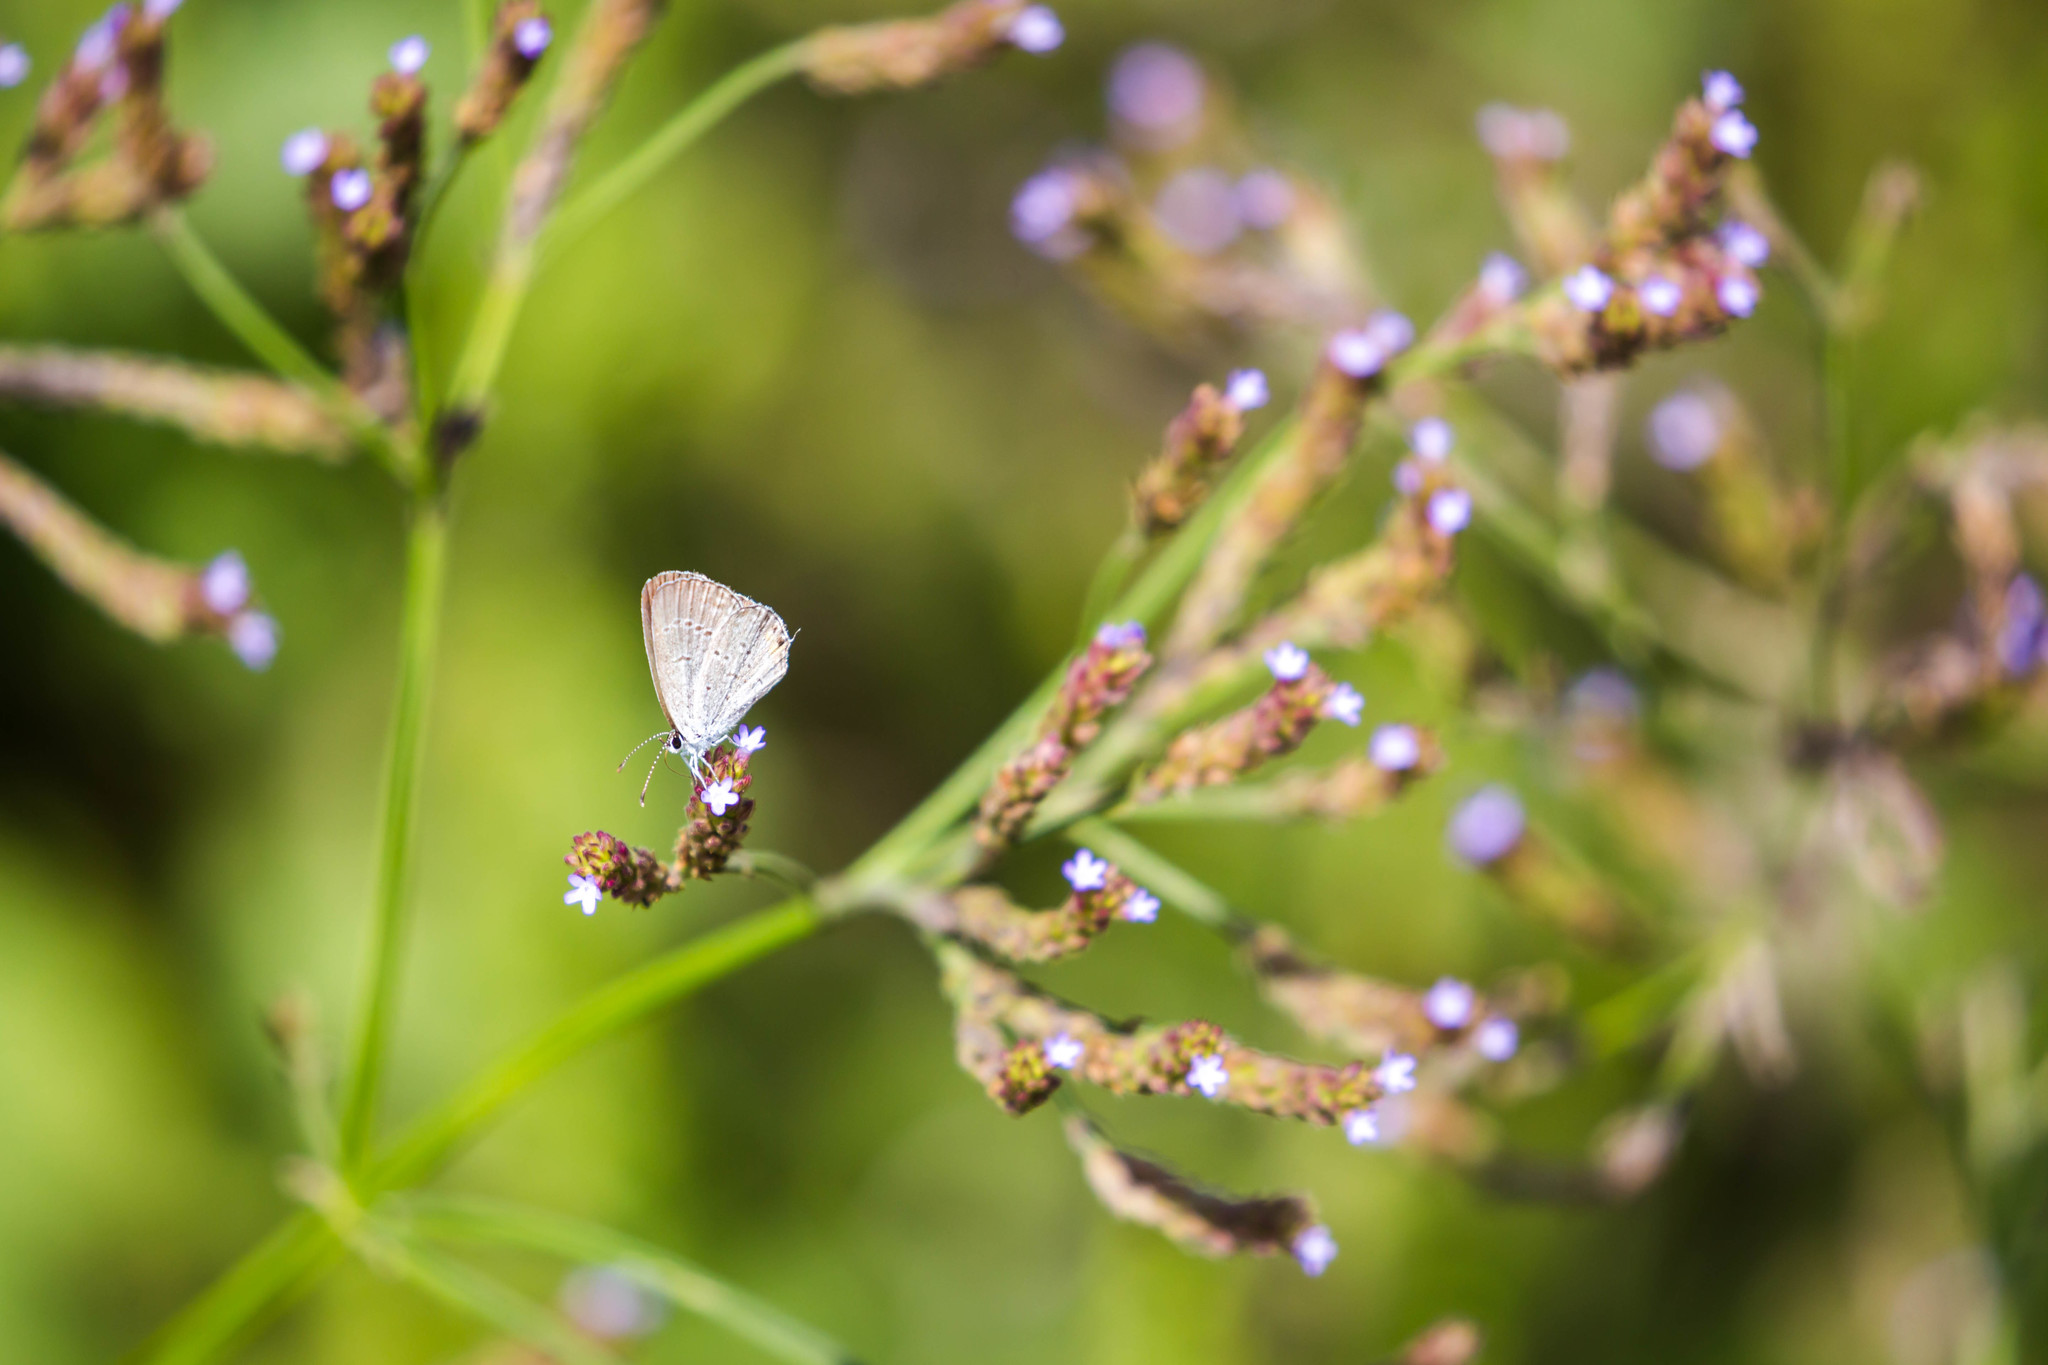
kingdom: Animalia
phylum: Arthropoda
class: Insecta
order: Lepidoptera
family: Lycaenidae
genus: Elkalyce
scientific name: Elkalyce comyntas
